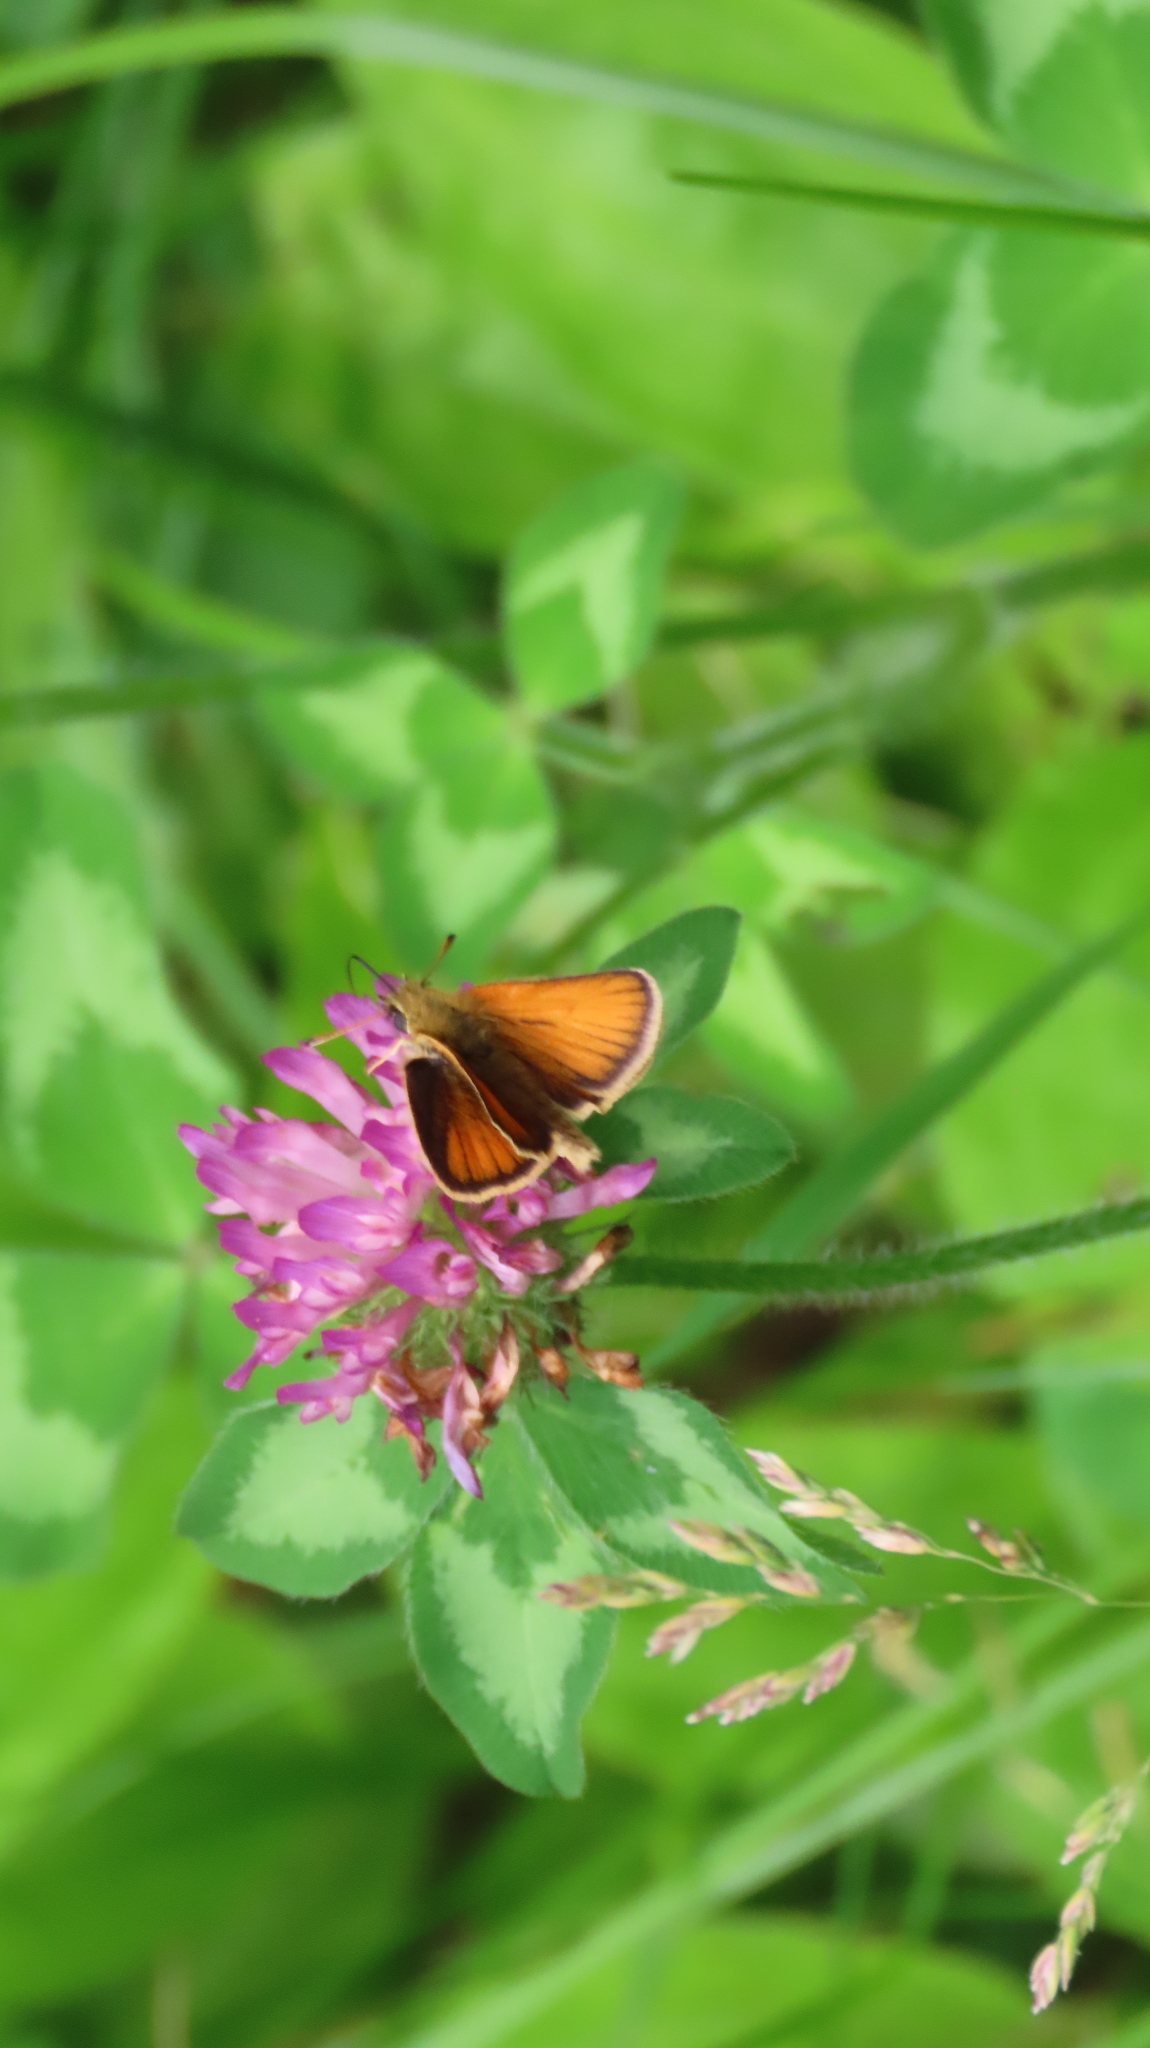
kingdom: Animalia
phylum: Arthropoda
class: Insecta
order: Lepidoptera
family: Hesperiidae
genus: Thymelicus
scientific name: Thymelicus lineola
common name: Essex skipper
